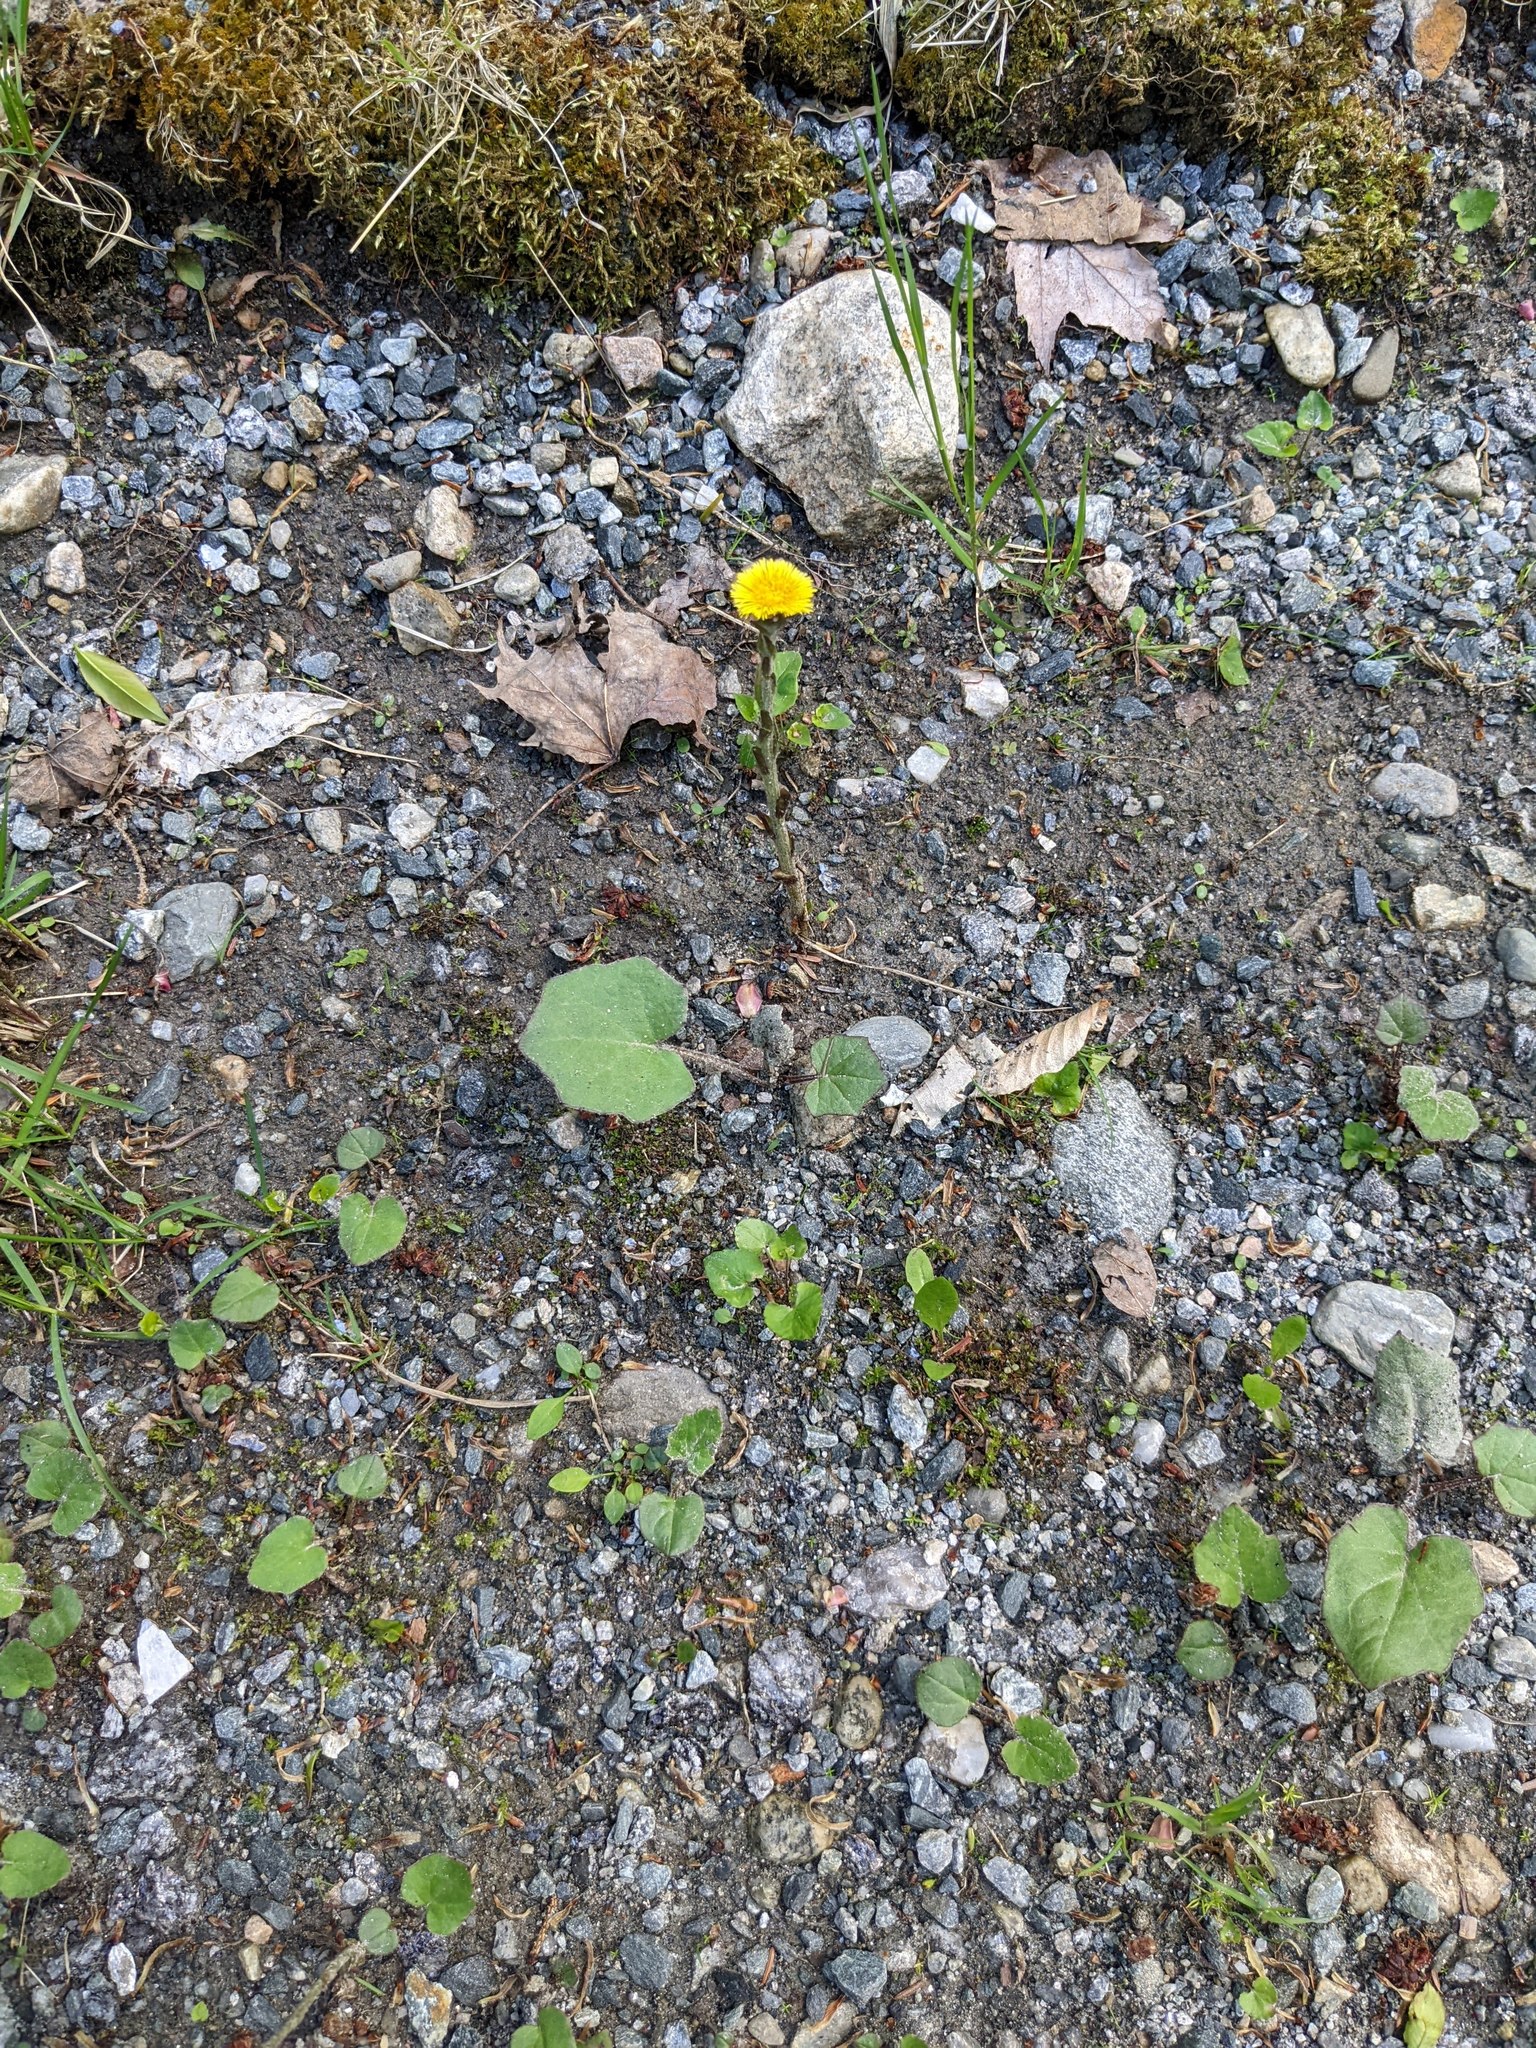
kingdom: Plantae
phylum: Tracheophyta
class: Magnoliopsida
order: Asterales
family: Asteraceae
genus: Tussilago
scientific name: Tussilago farfara
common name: Coltsfoot
